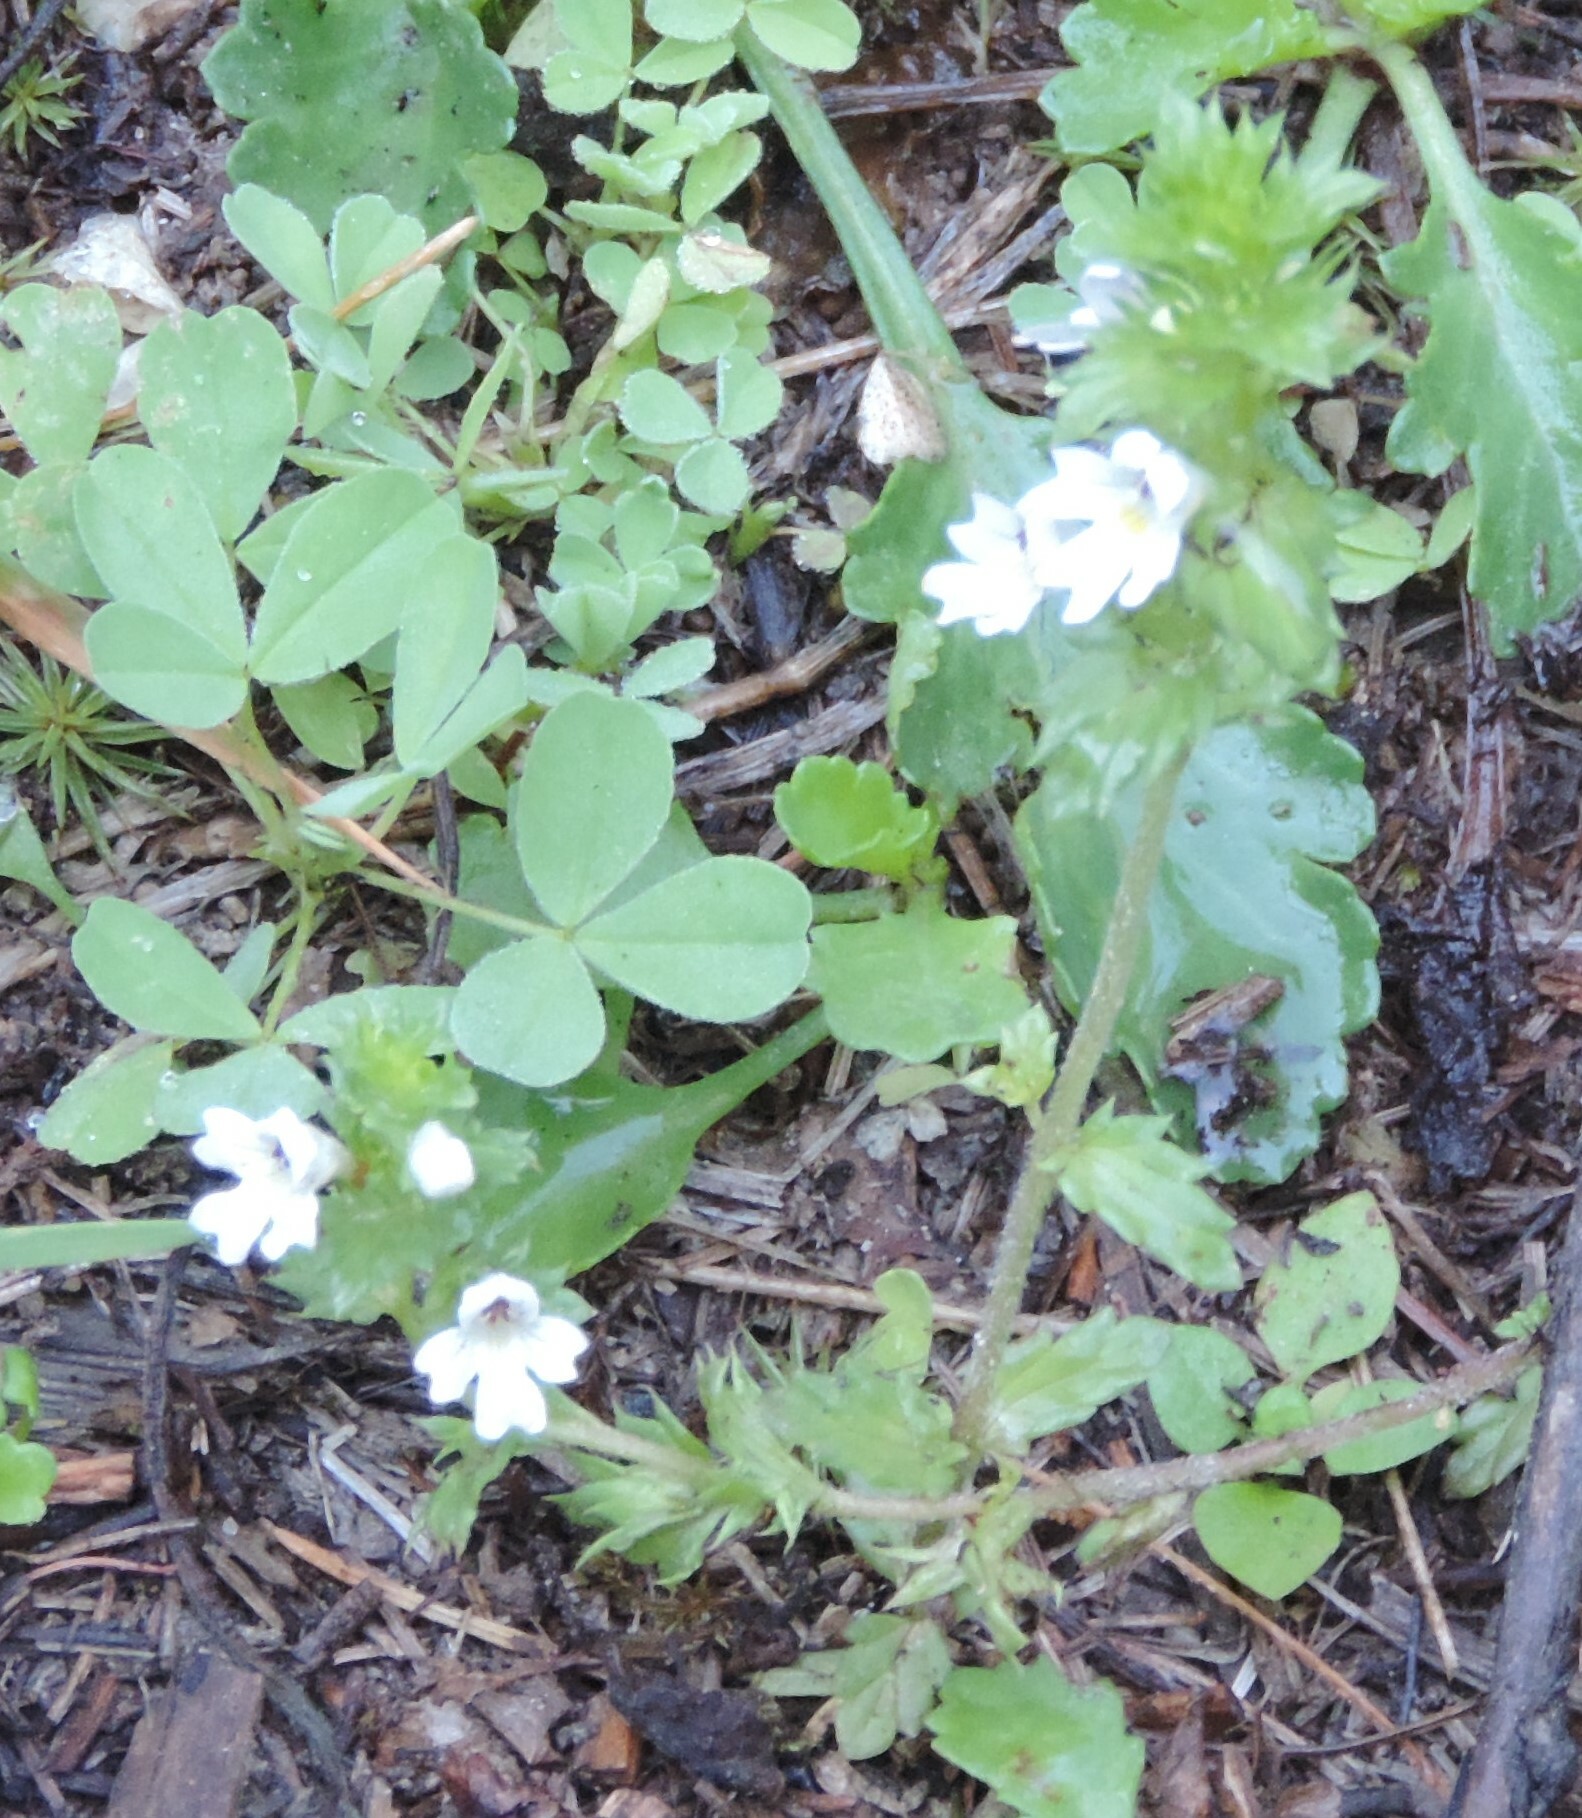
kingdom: Plantae
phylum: Tracheophyta
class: Magnoliopsida
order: Lamiales
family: Orobanchaceae
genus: Euphrasia
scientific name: Euphrasia nemorosa
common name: Common eyebright
